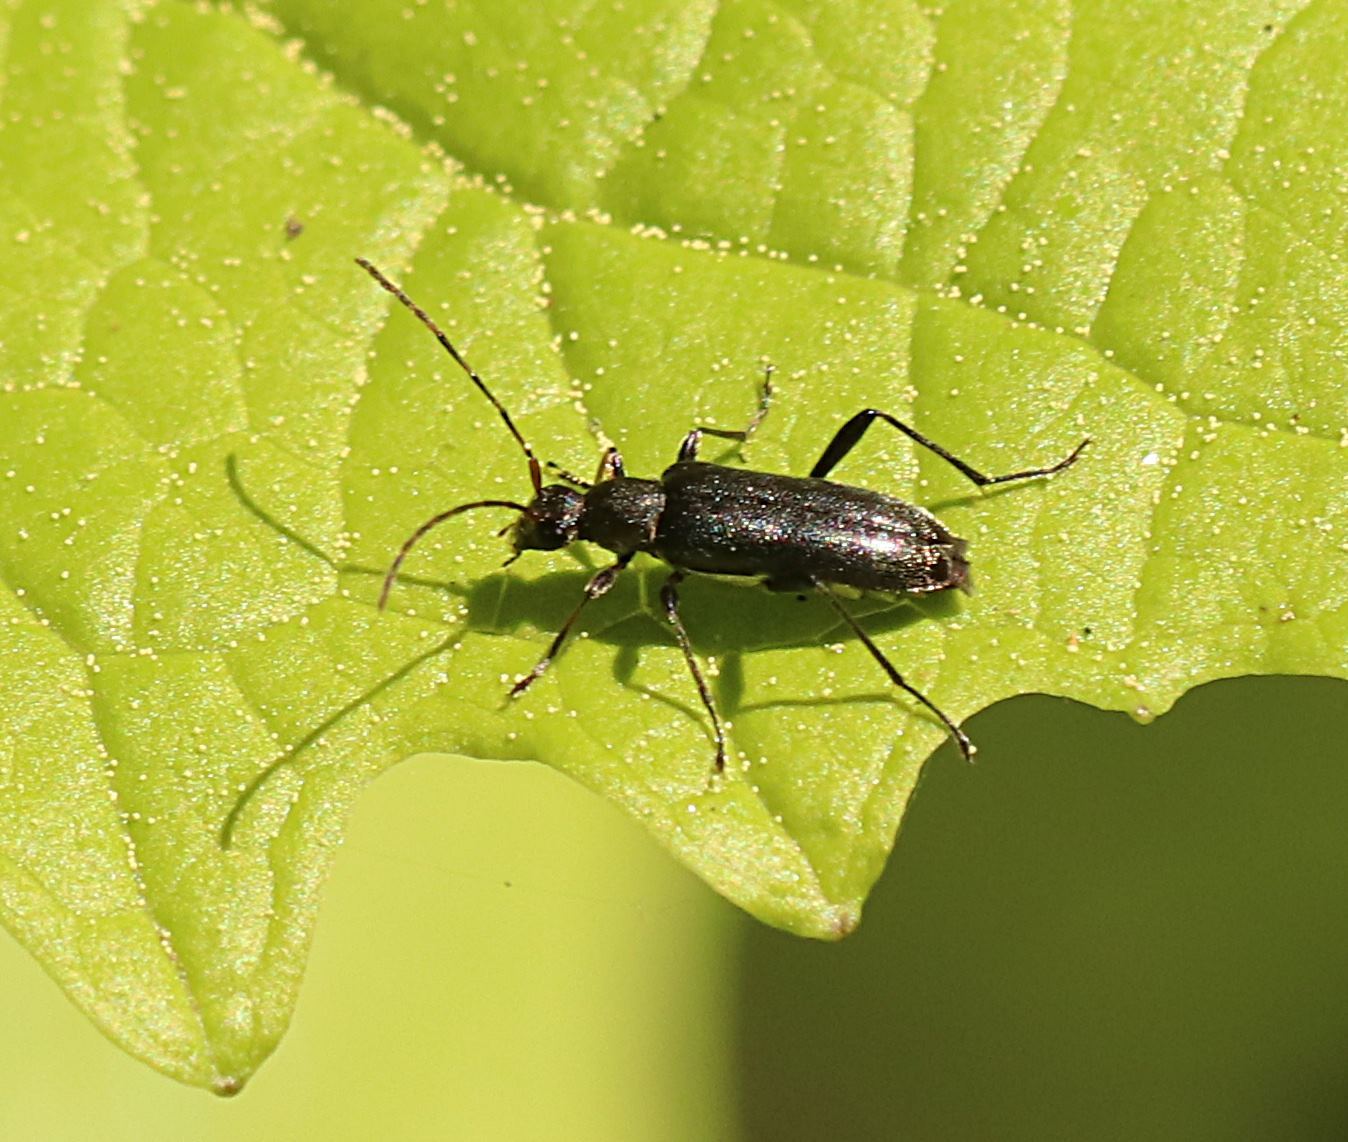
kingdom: Animalia
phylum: Arthropoda
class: Insecta
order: Coleoptera
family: Cerambycidae
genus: Grammoptera
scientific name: Grammoptera ruficornis
